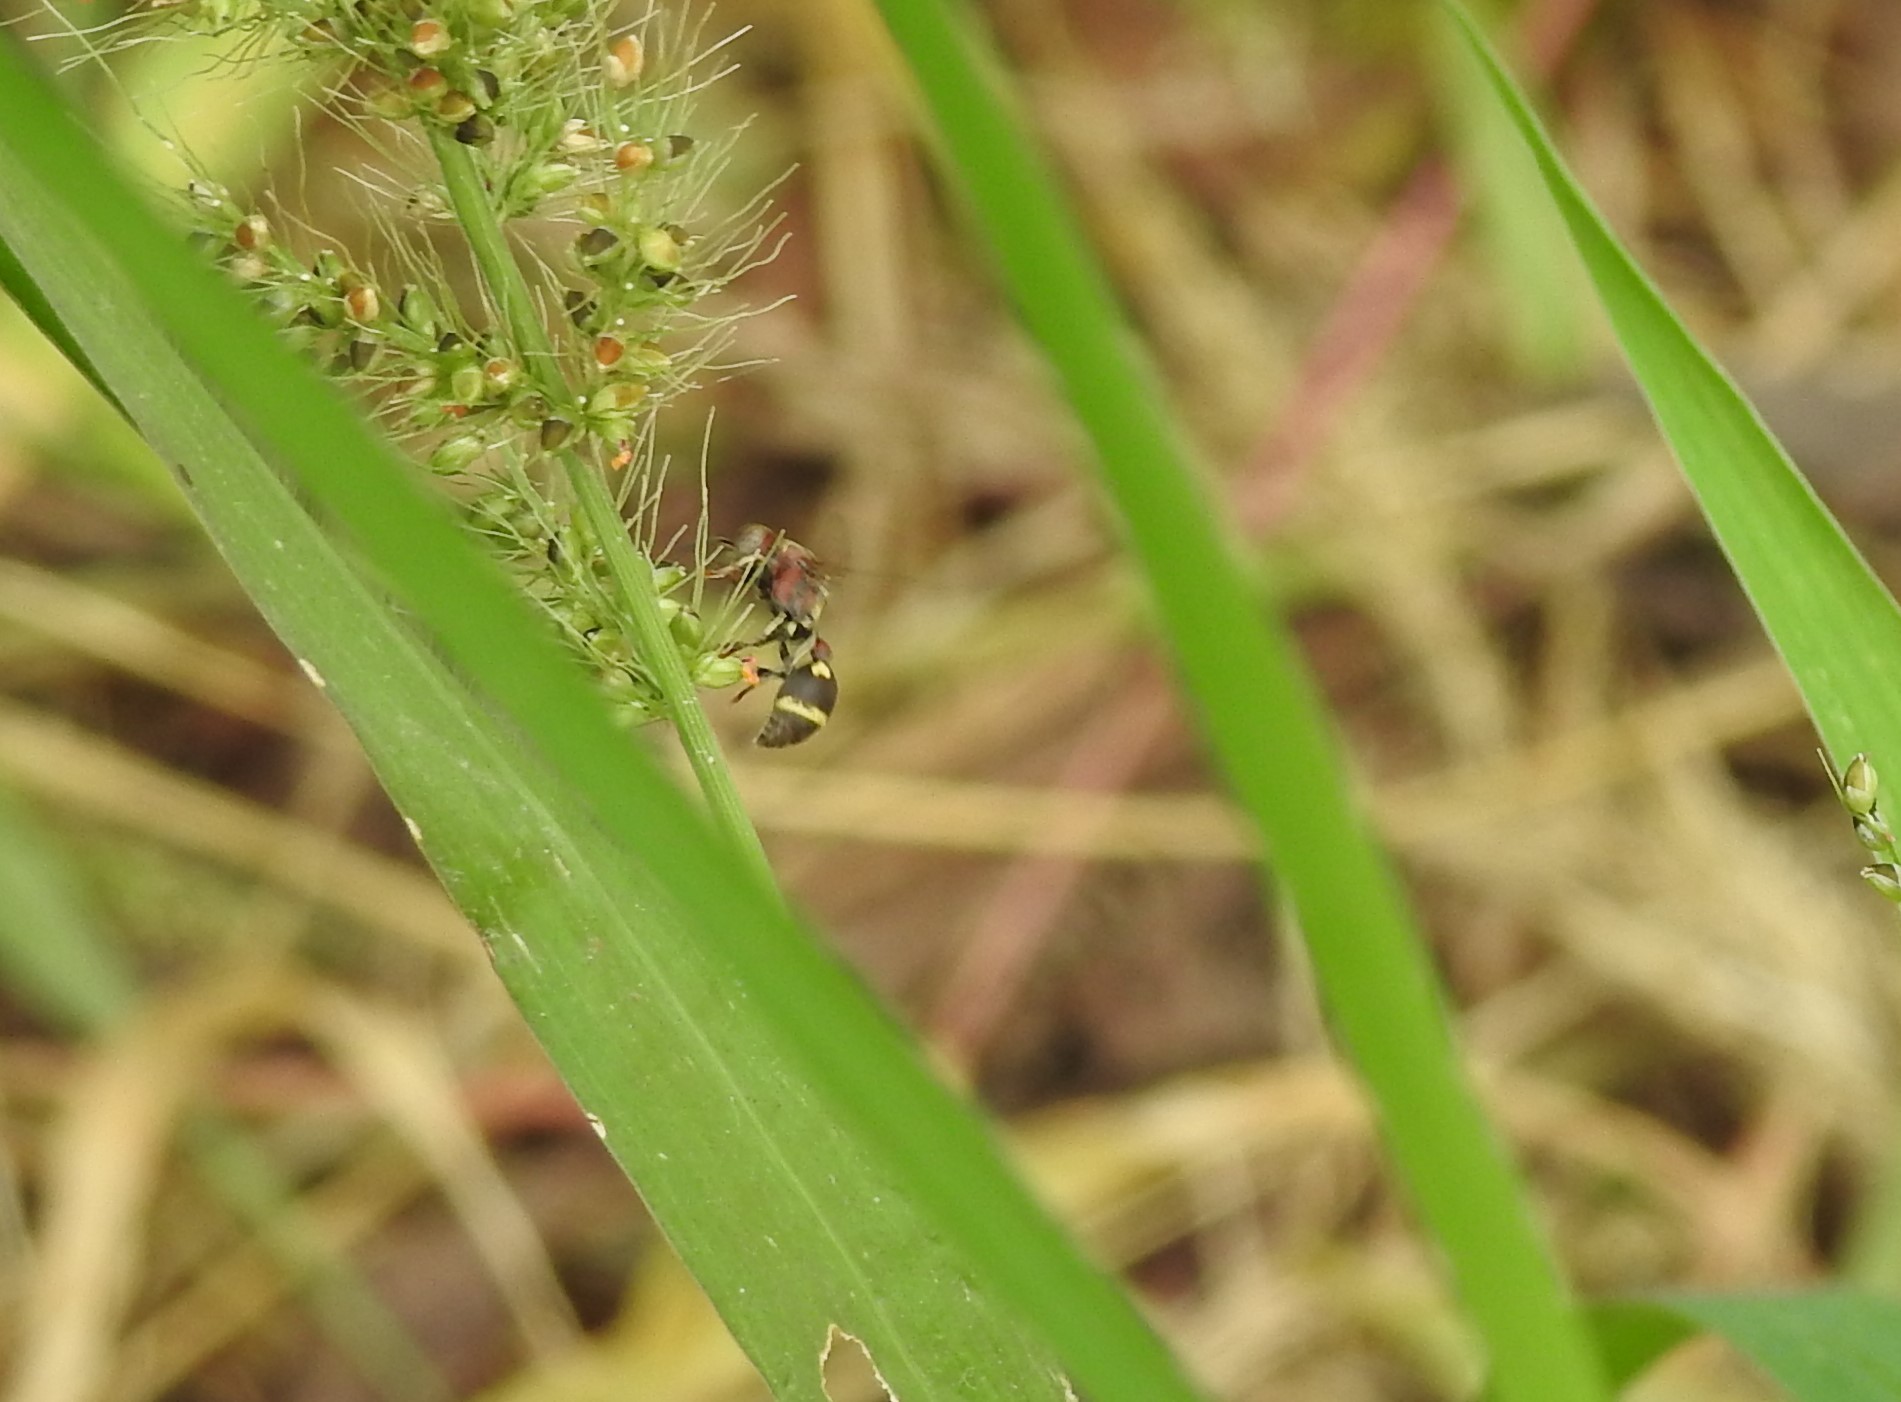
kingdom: Animalia
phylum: Arthropoda
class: Insecta
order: Hymenoptera
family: Vespidae
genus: Ropalidia
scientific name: Ropalidia jacobsoni
